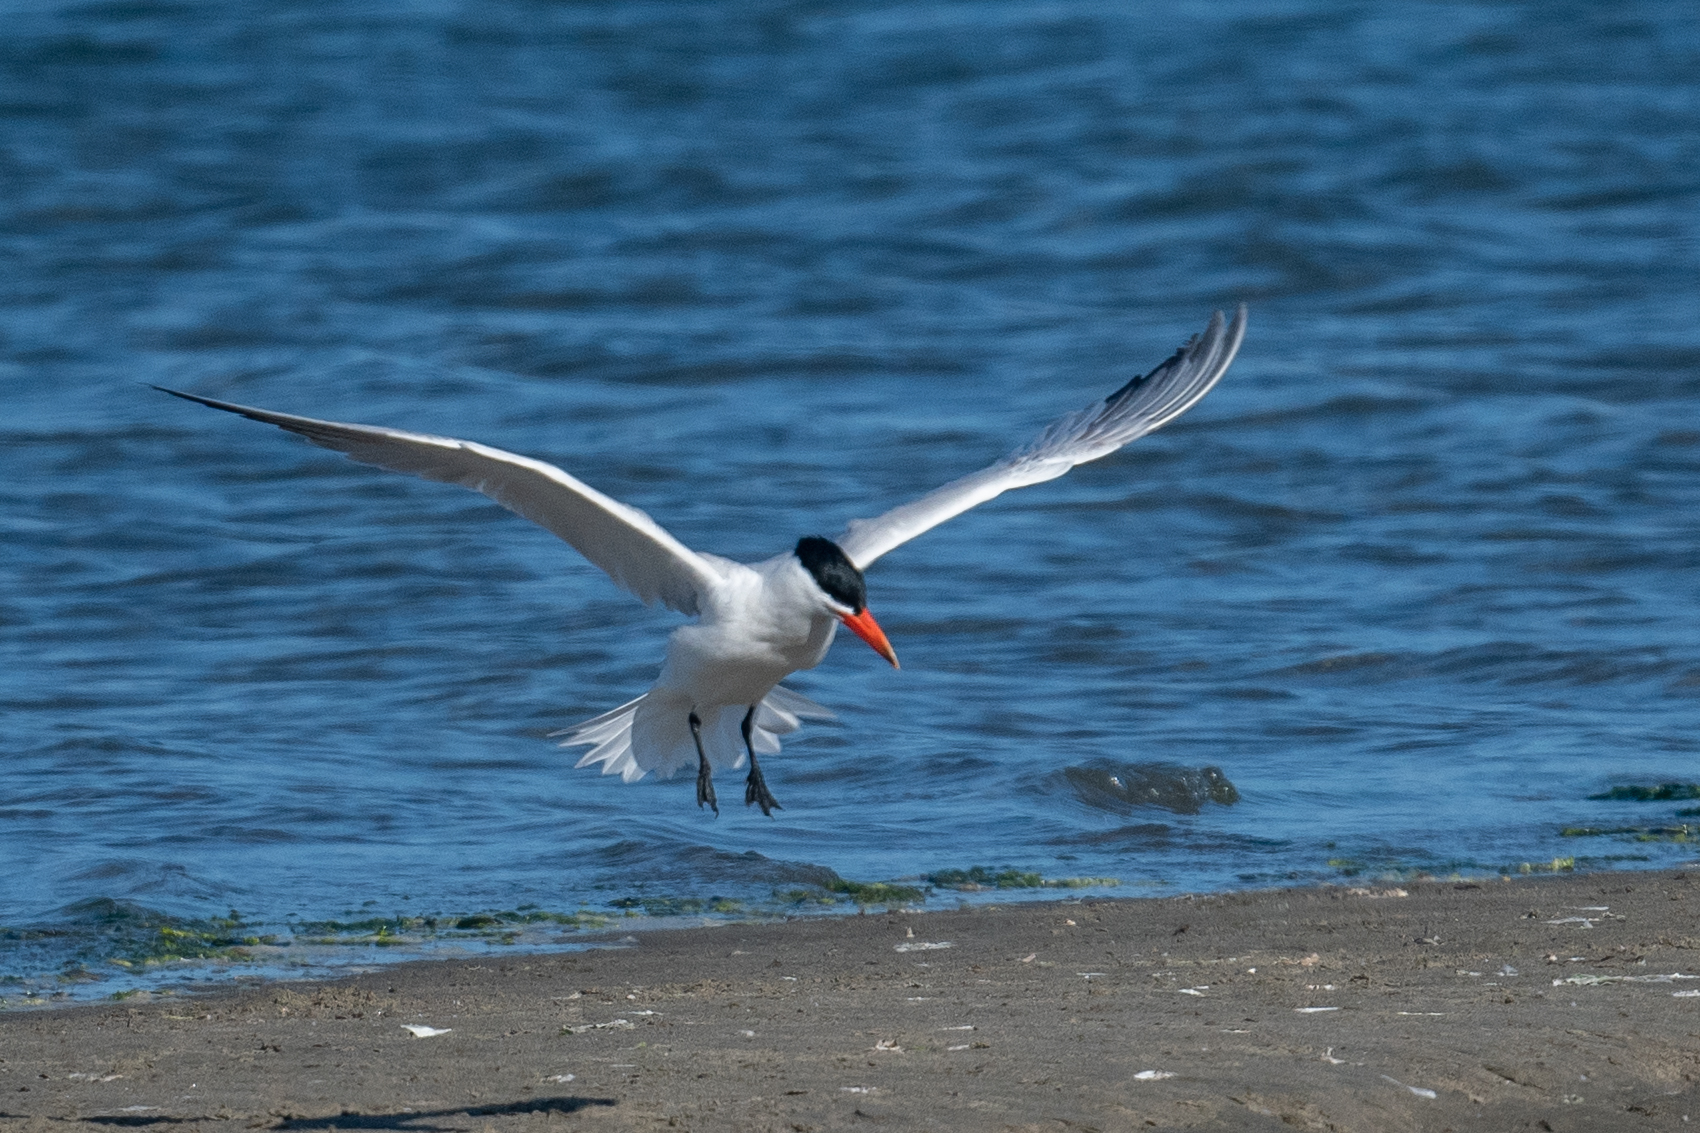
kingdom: Animalia
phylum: Chordata
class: Aves
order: Charadriiformes
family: Laridae
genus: Hydroprogne
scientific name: Hydroprogne caspia
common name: Caspian tern
